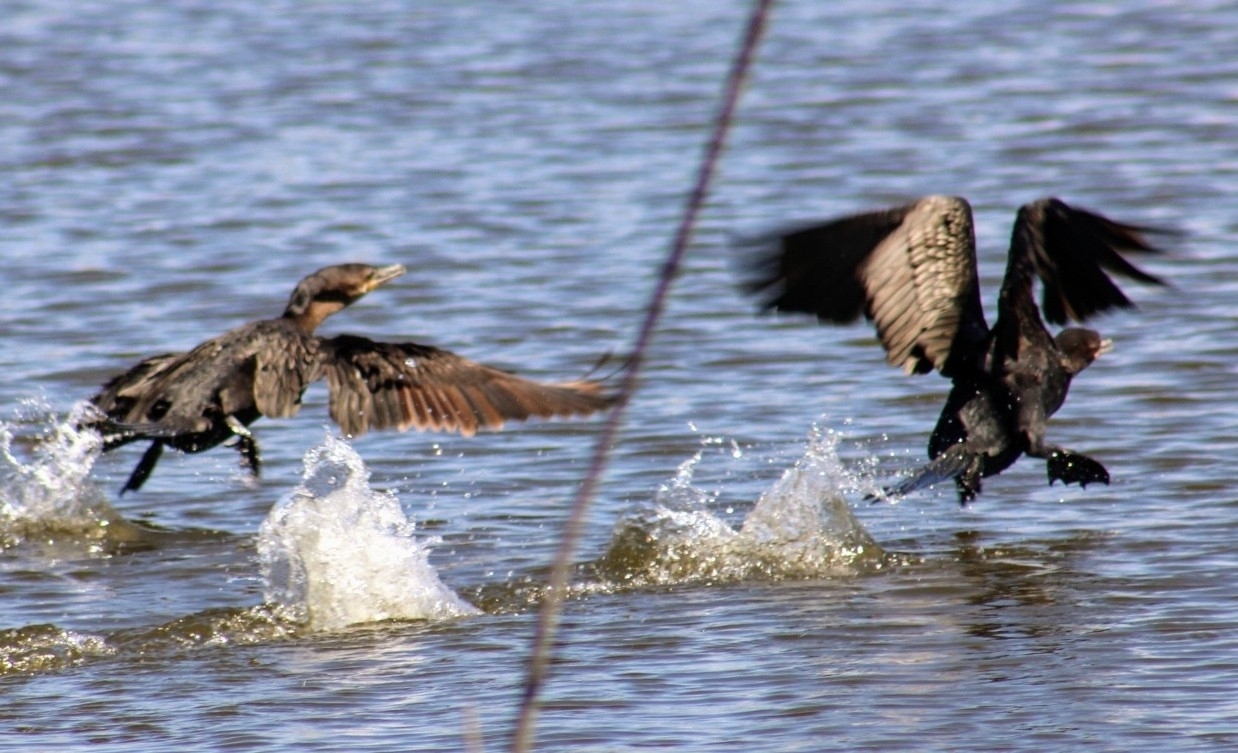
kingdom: Animalia
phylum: Chordata
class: Aves
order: Suliformes
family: Phalacrocoracidae
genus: Phalacrocorax
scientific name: Phalacrocorax brasilianus
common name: Neotropic cormorant
